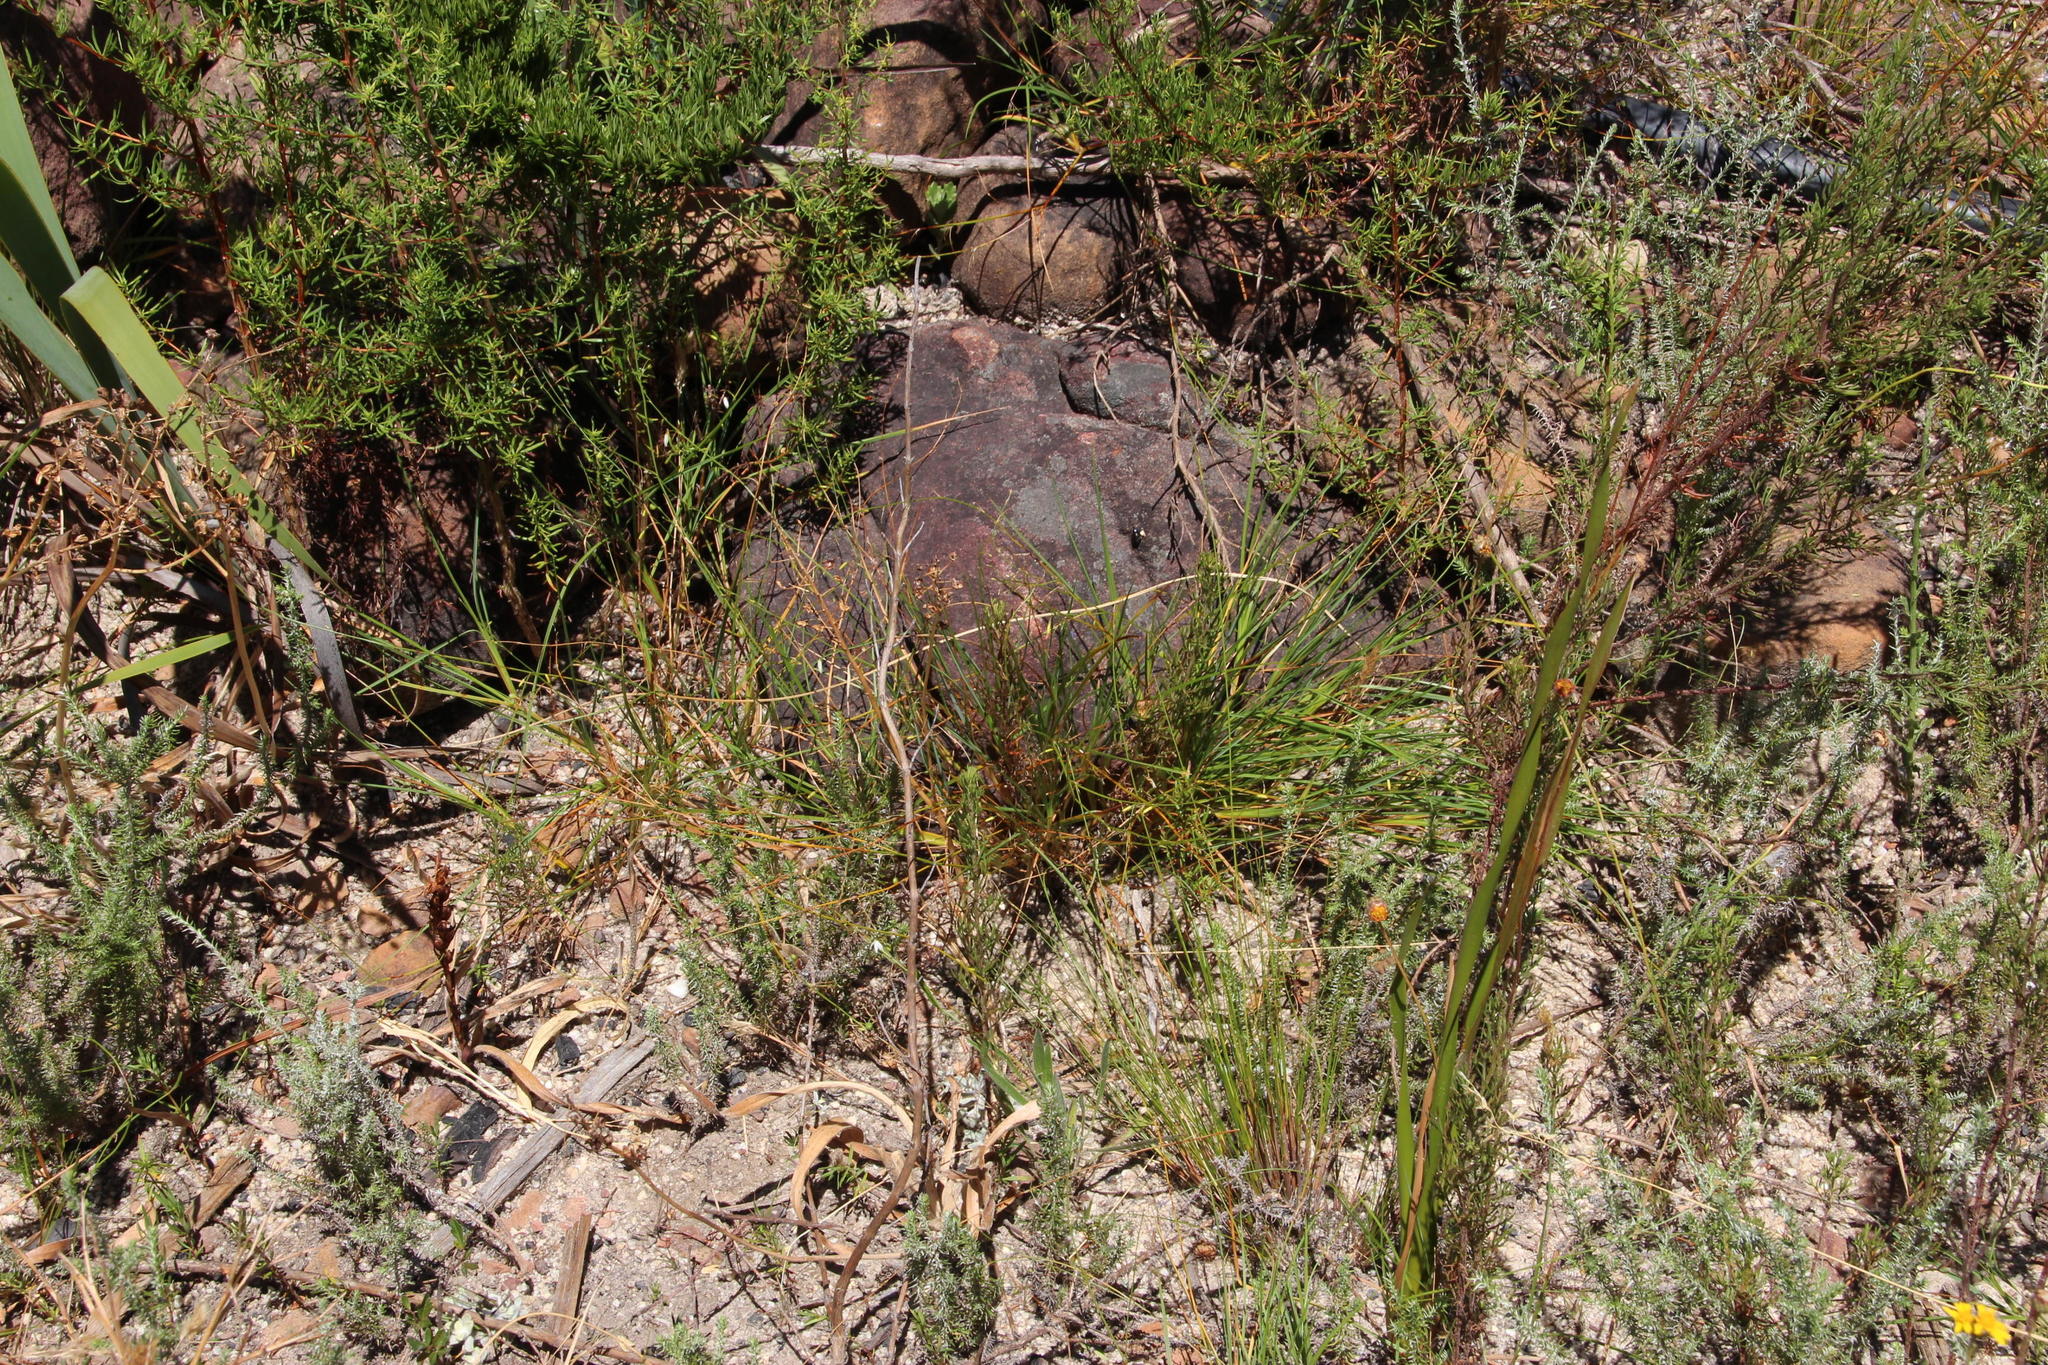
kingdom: Plantae
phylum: Tracheophyta
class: Liliopsida
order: Asparagales
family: Asphodelaceae
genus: Caesia
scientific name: Caesia contorta
